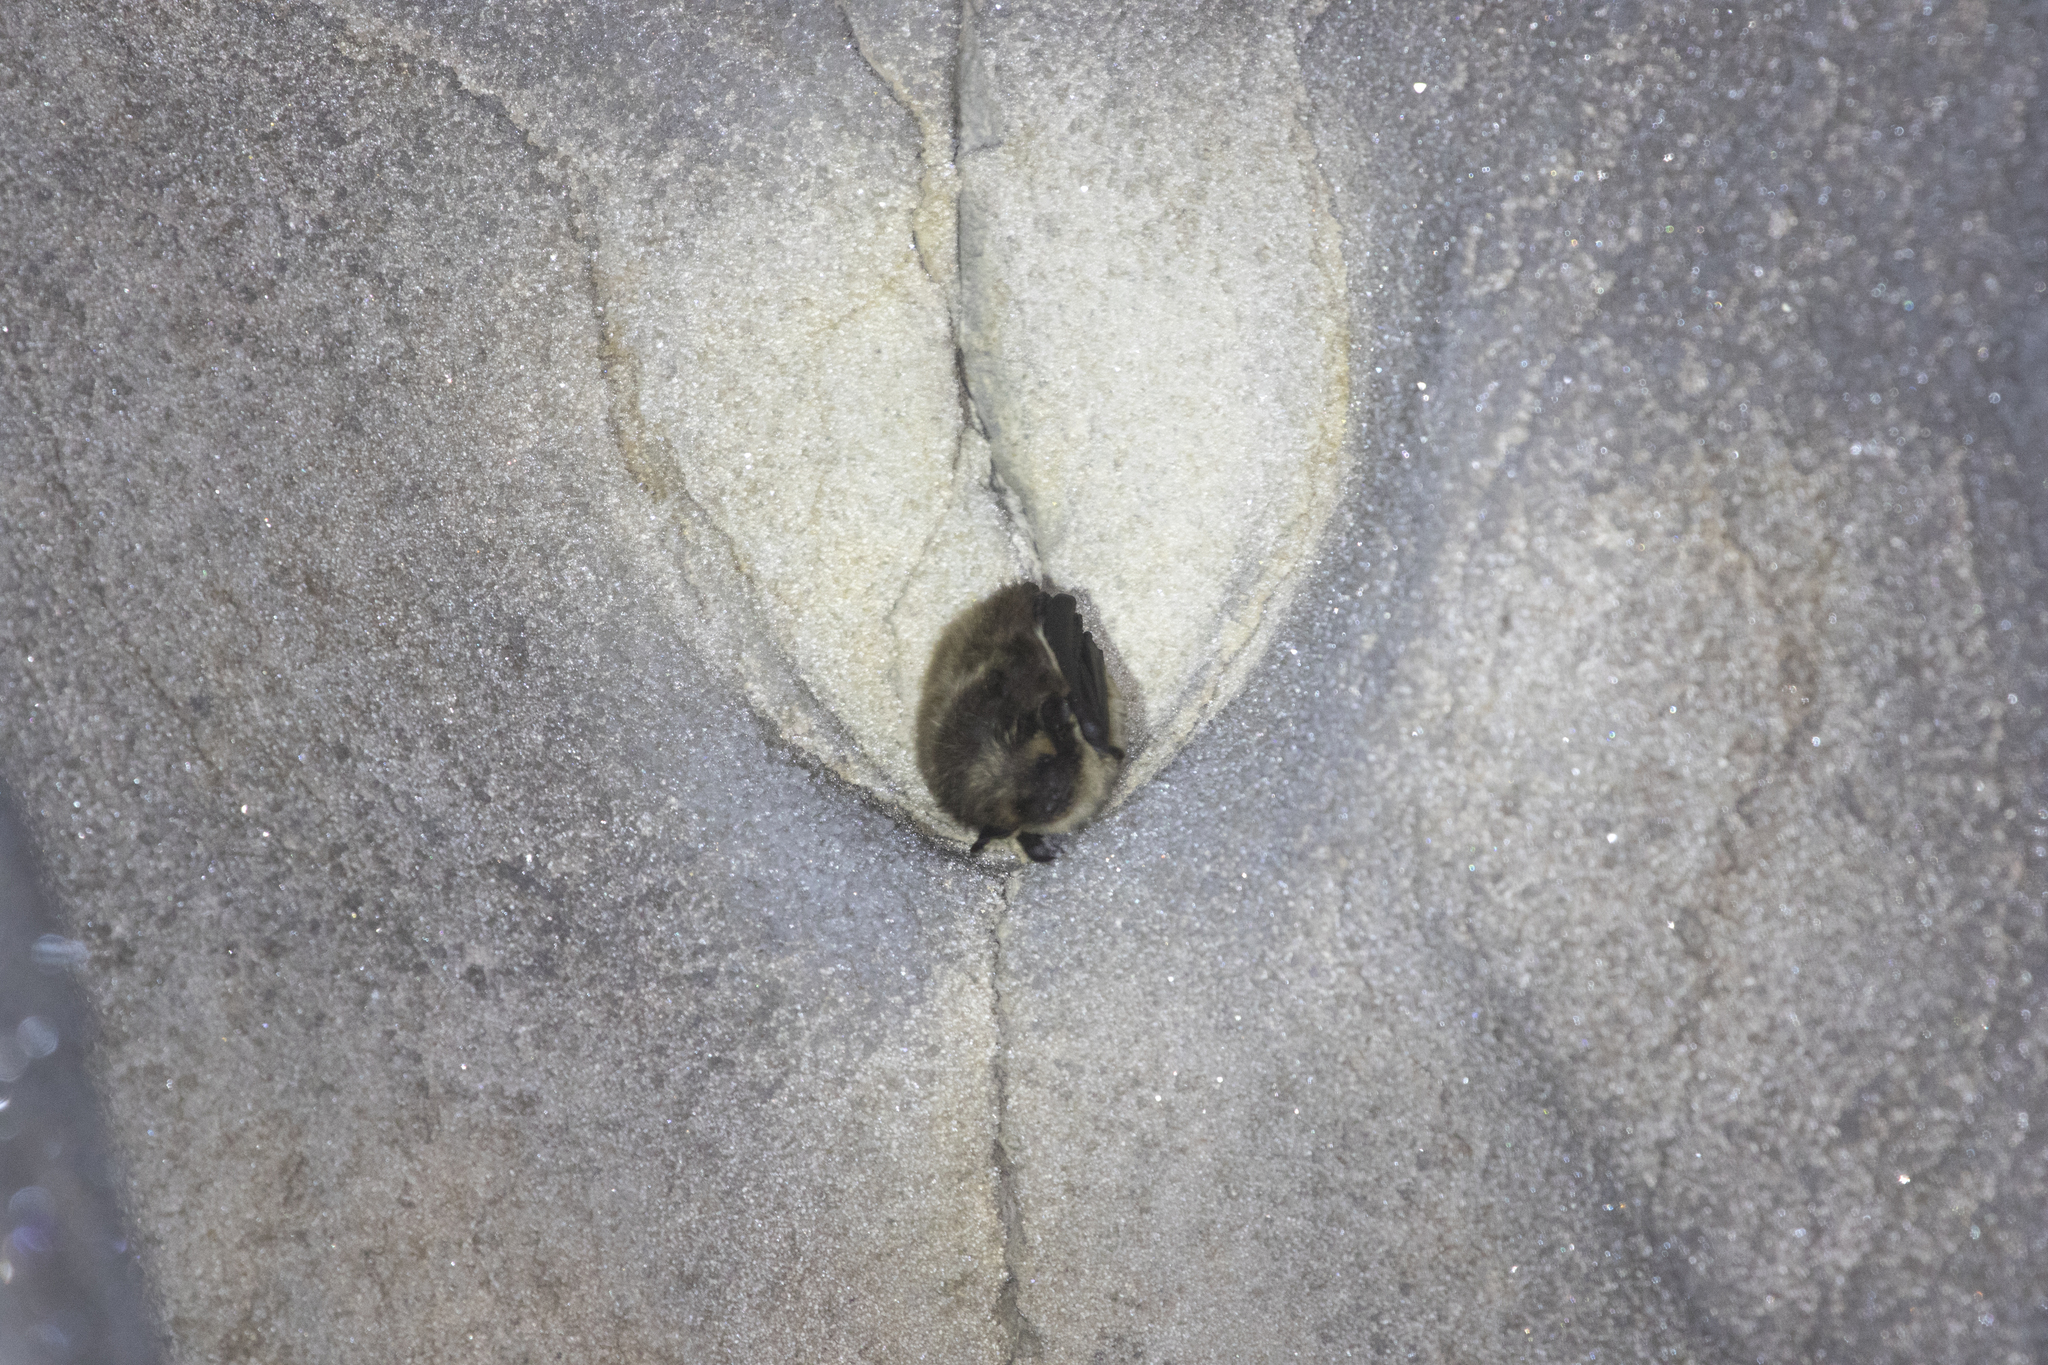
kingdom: Animalia
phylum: Chordata
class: Mammalia
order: Chiroptera
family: Vespertilionidae
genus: Eptesicus
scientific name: Eptesicus nilssonii
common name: Northern bat
